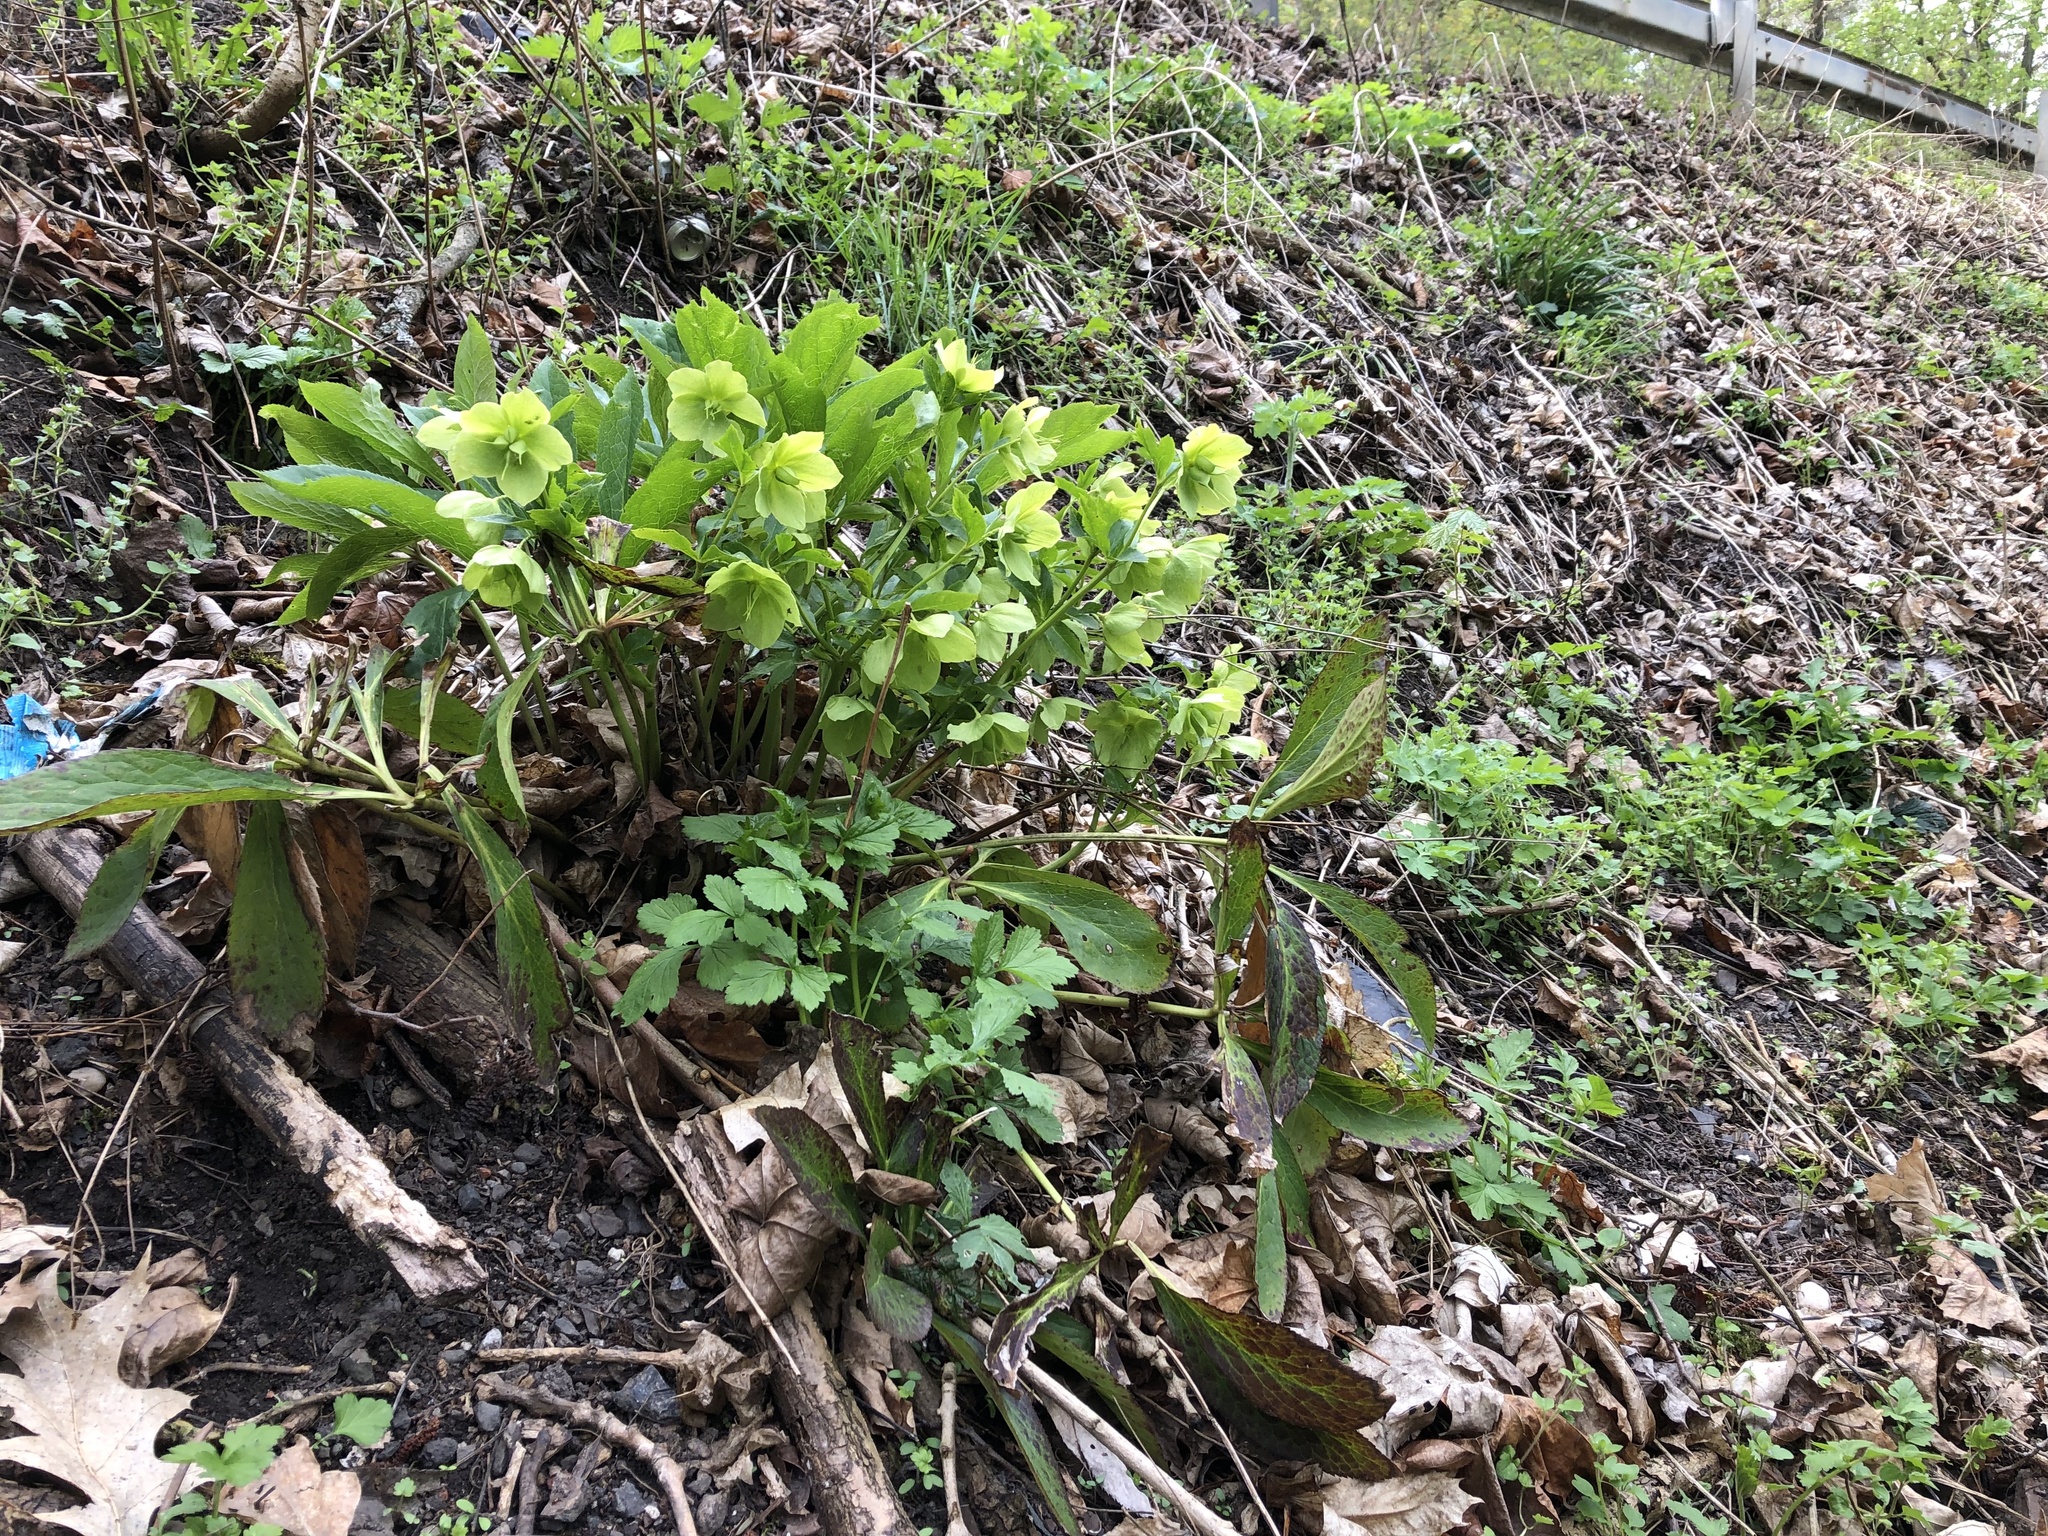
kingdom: Plantae
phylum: Tracheophyta
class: Magnoliopsida
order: Ranunculales
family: Ranunculaceae
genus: Helleborus
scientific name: Helleborus orientalis
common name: Lenten-rose
